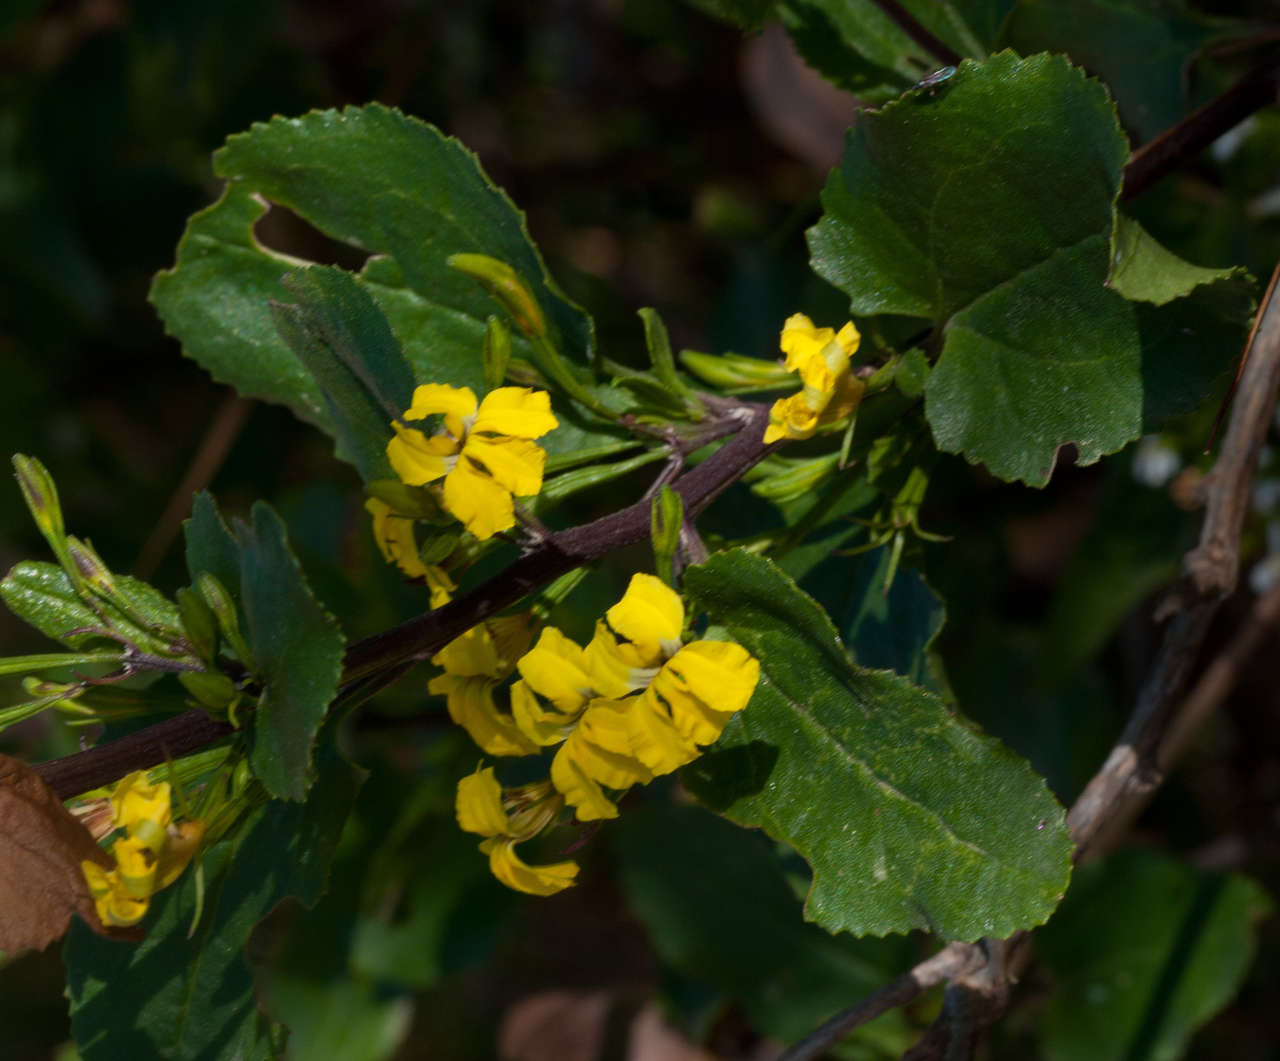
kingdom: Plantae
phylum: Tracheophyta
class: Magnoliopsida
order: Asterales
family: Goodeniaceae
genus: Goodenia
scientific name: Goodenia ovata
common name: Hop goodenia
